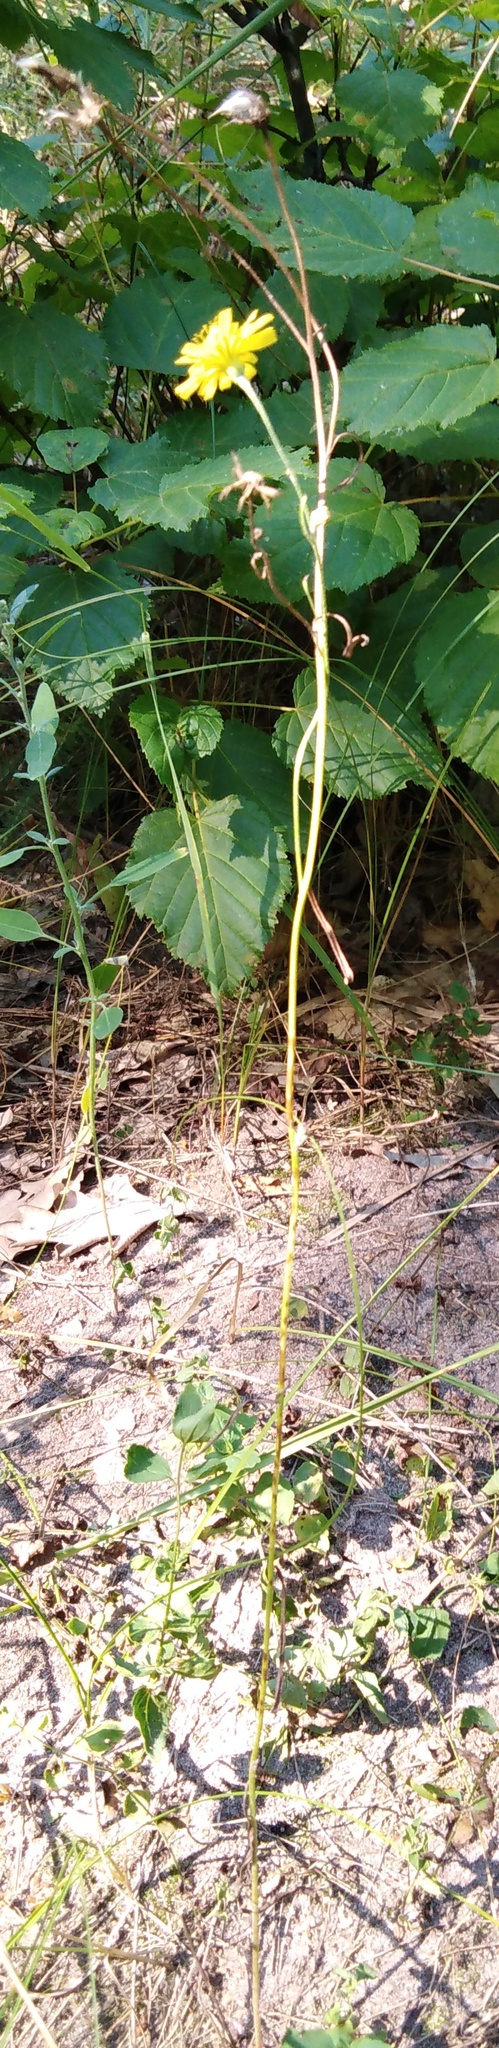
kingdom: Plantae
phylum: Tracheophyta
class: Magnoliopsida
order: Asterales
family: Asteraceae
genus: Lactuca
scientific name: Lactuca serriola
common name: Prickly lettuce
